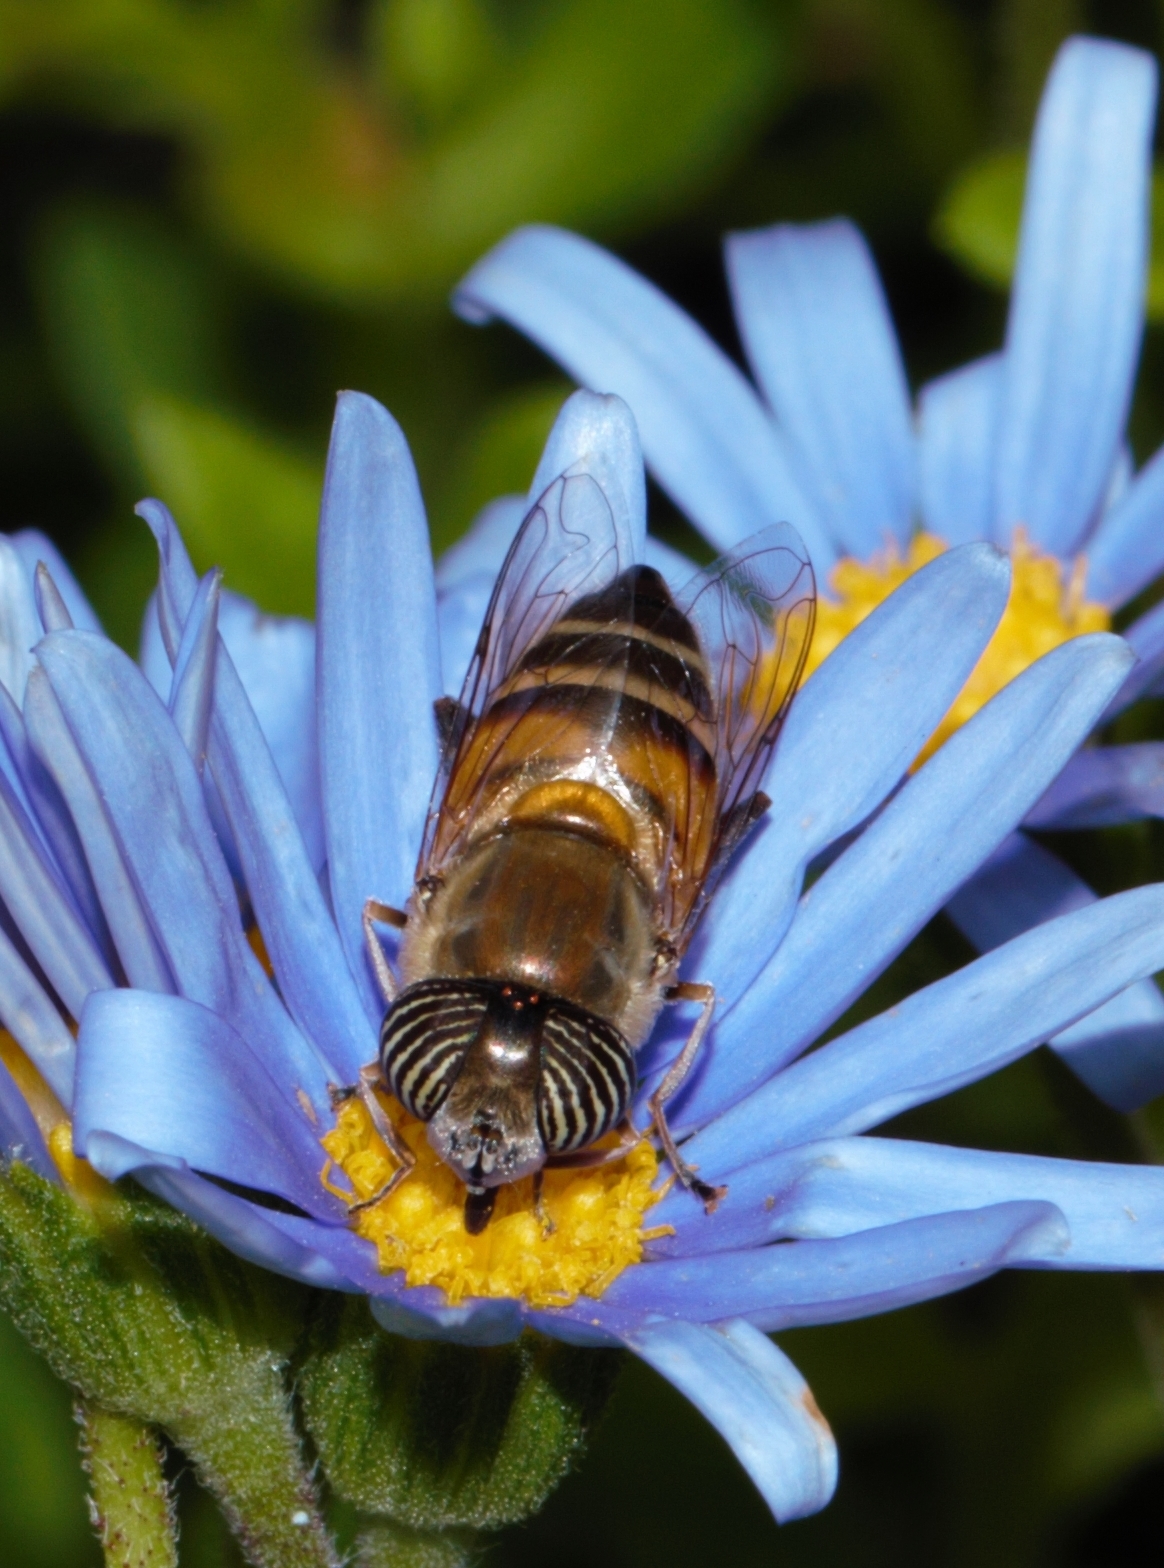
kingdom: Animalia
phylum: Arthropoda
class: Insecta
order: Diptera
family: Syrphidae
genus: Eristalinus
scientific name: Eristalinus taeniops
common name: Syrphid fly
